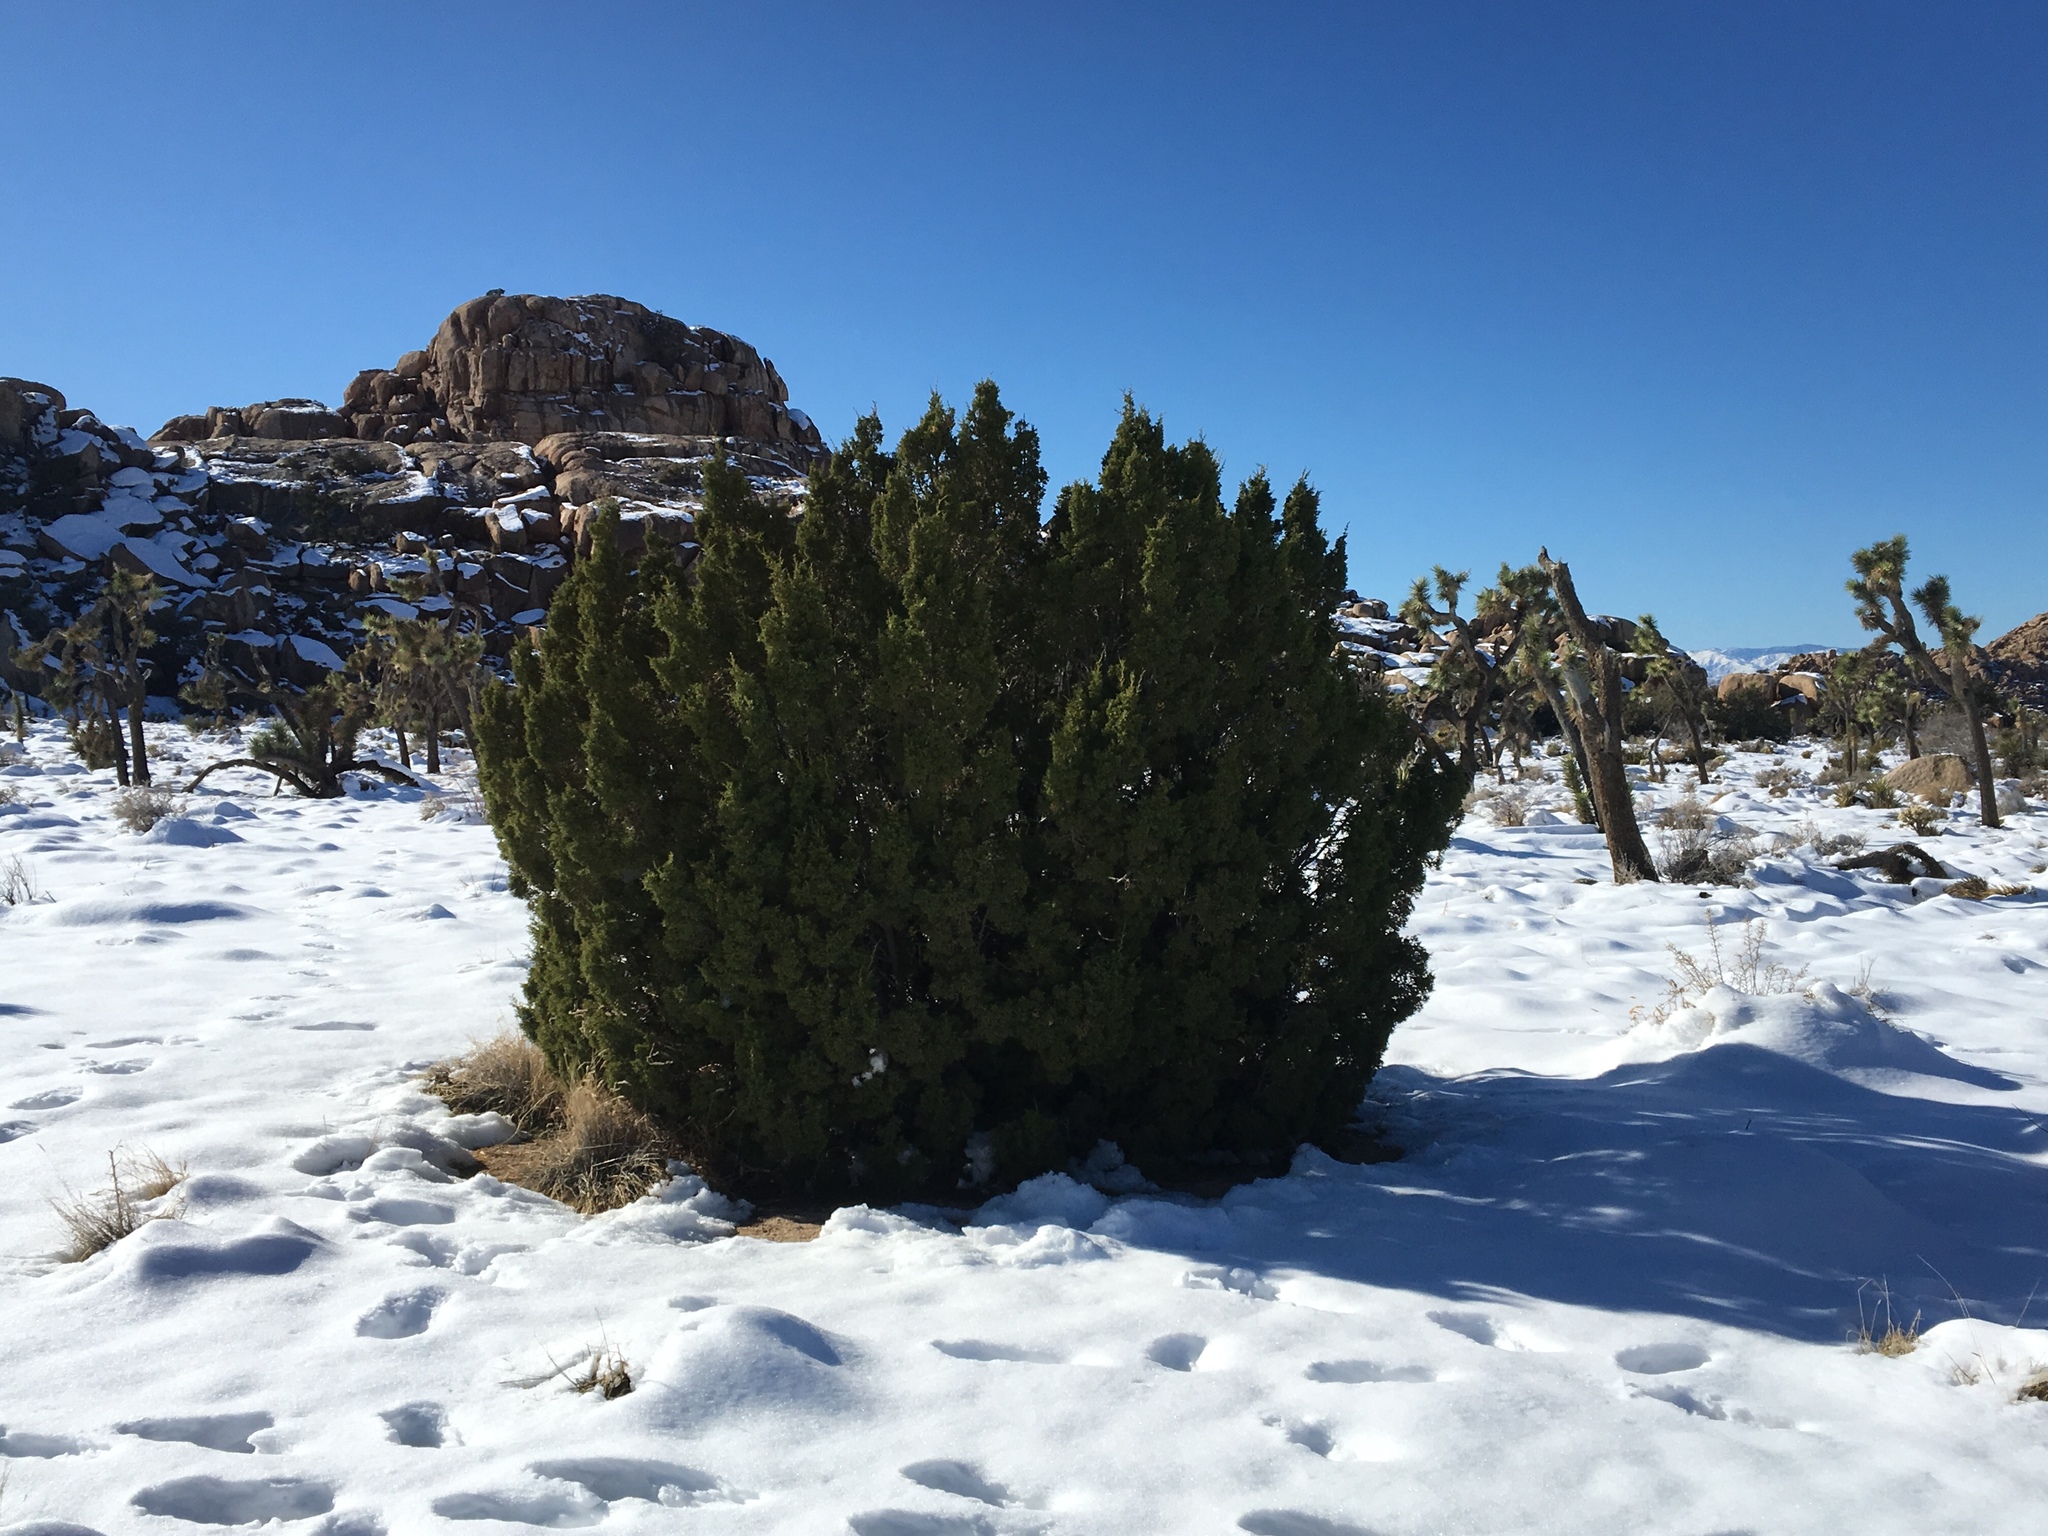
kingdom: Plantae
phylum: Tracheophyta
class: Pinopsida
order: Pinales
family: Cupressaceae
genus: Juniperus
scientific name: Juniperus californica
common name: California juniper
